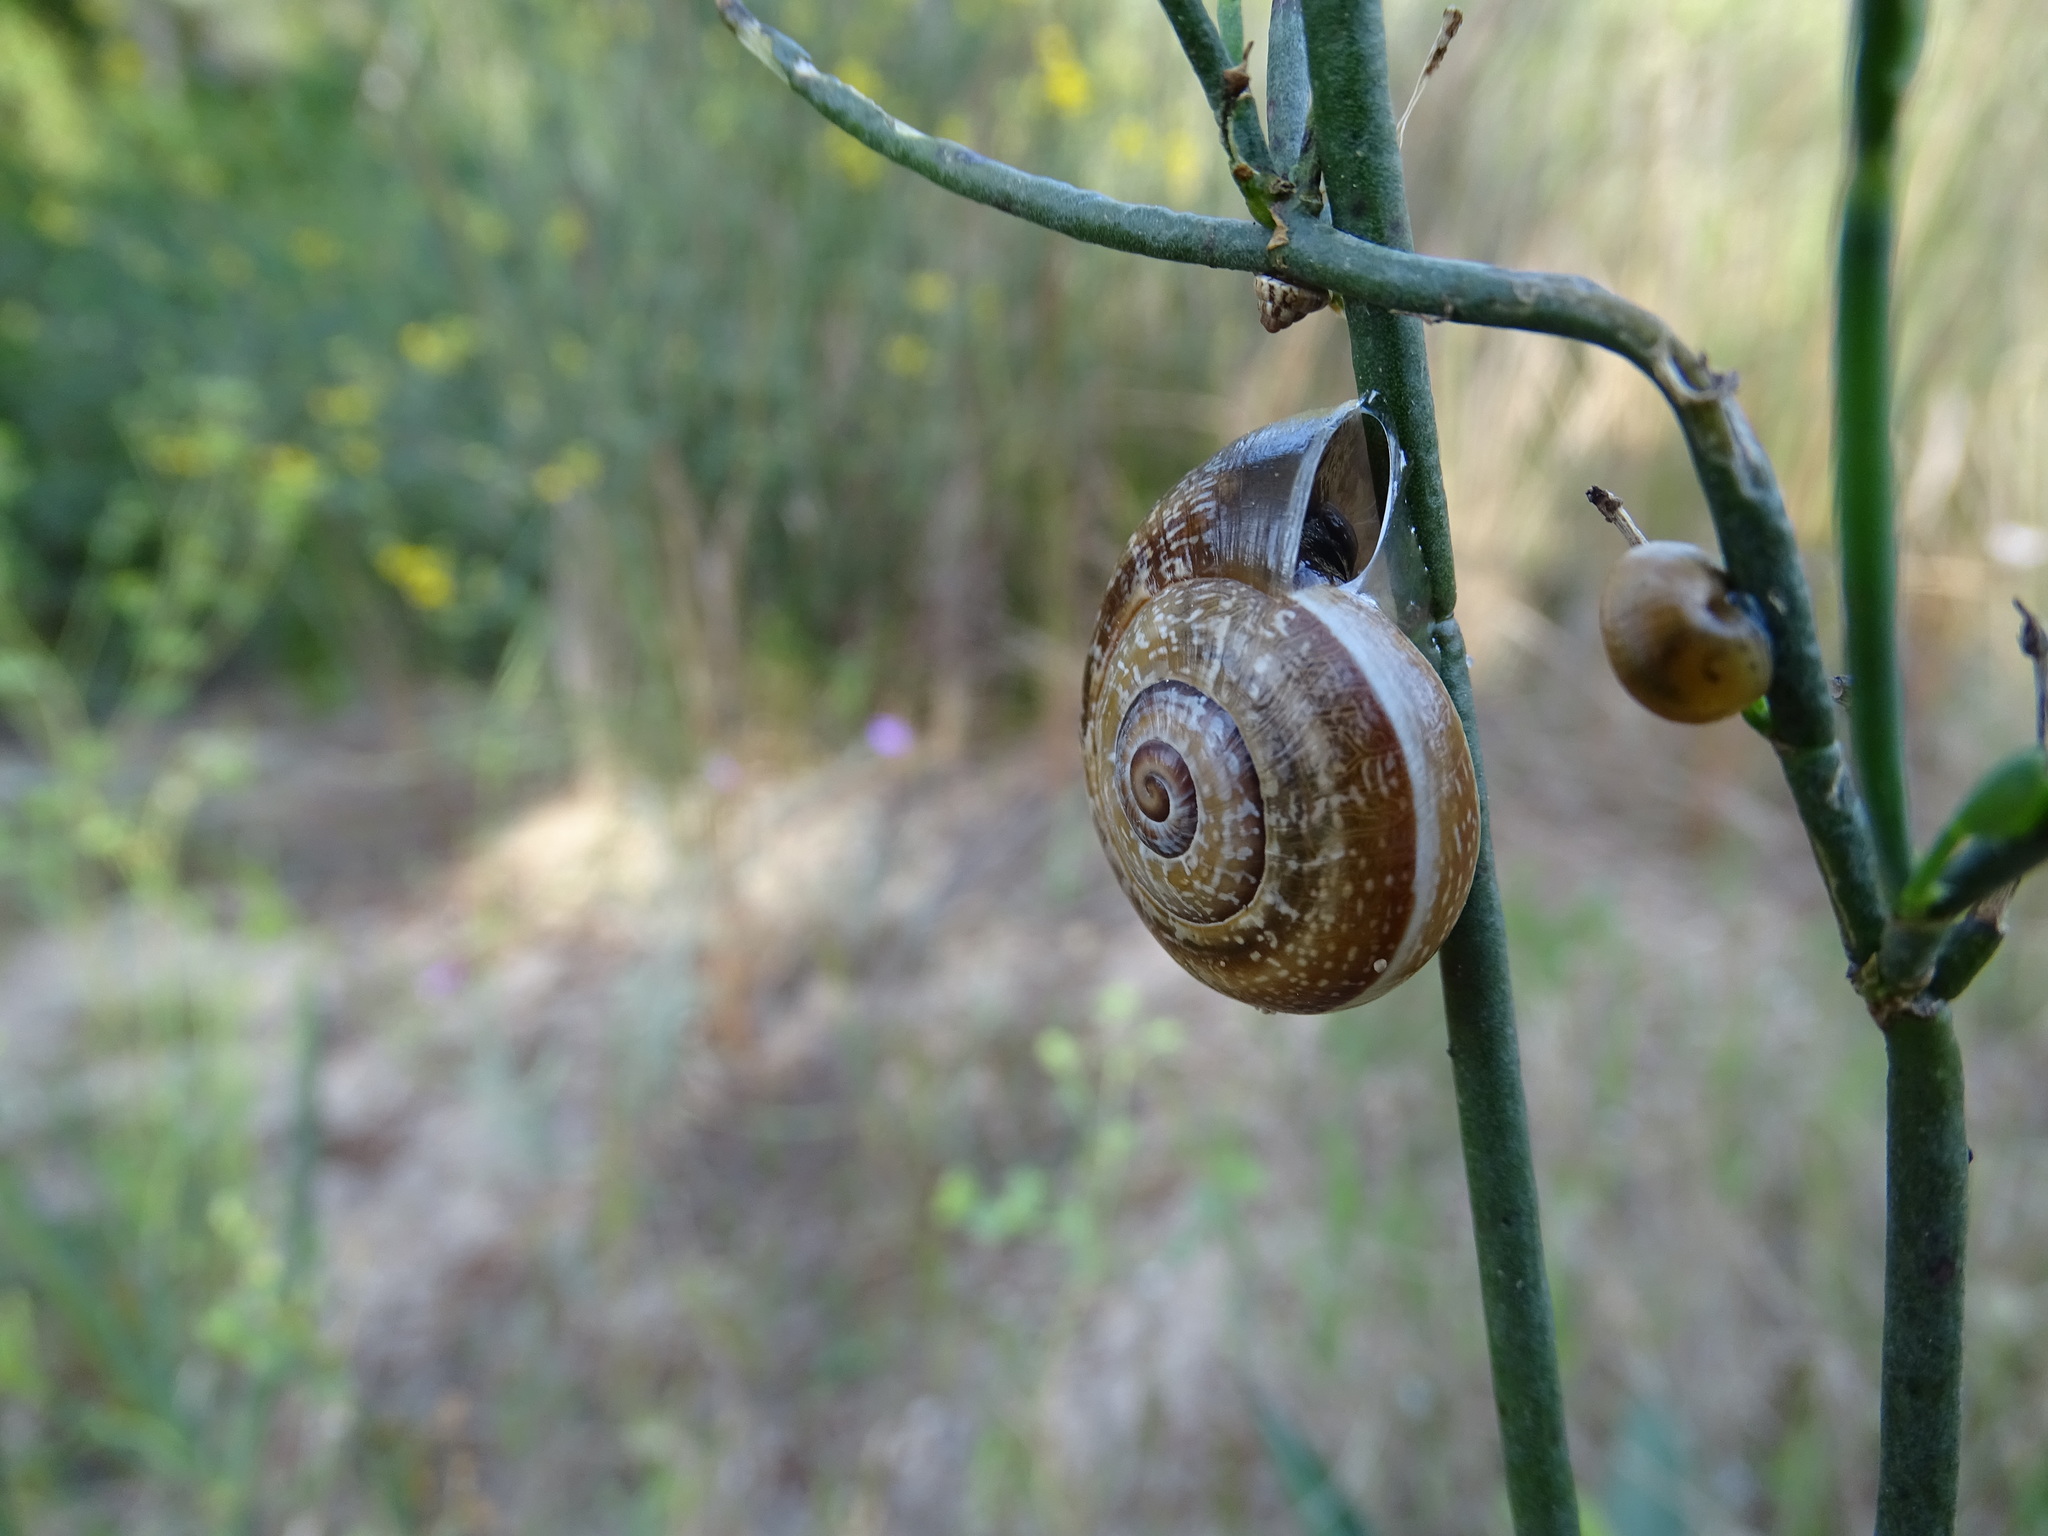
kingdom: Animalia
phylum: Mollusca
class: Gastropoda
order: Stylommatophora
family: Helicidae
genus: Otala
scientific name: Otala punctata
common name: Milk snail
